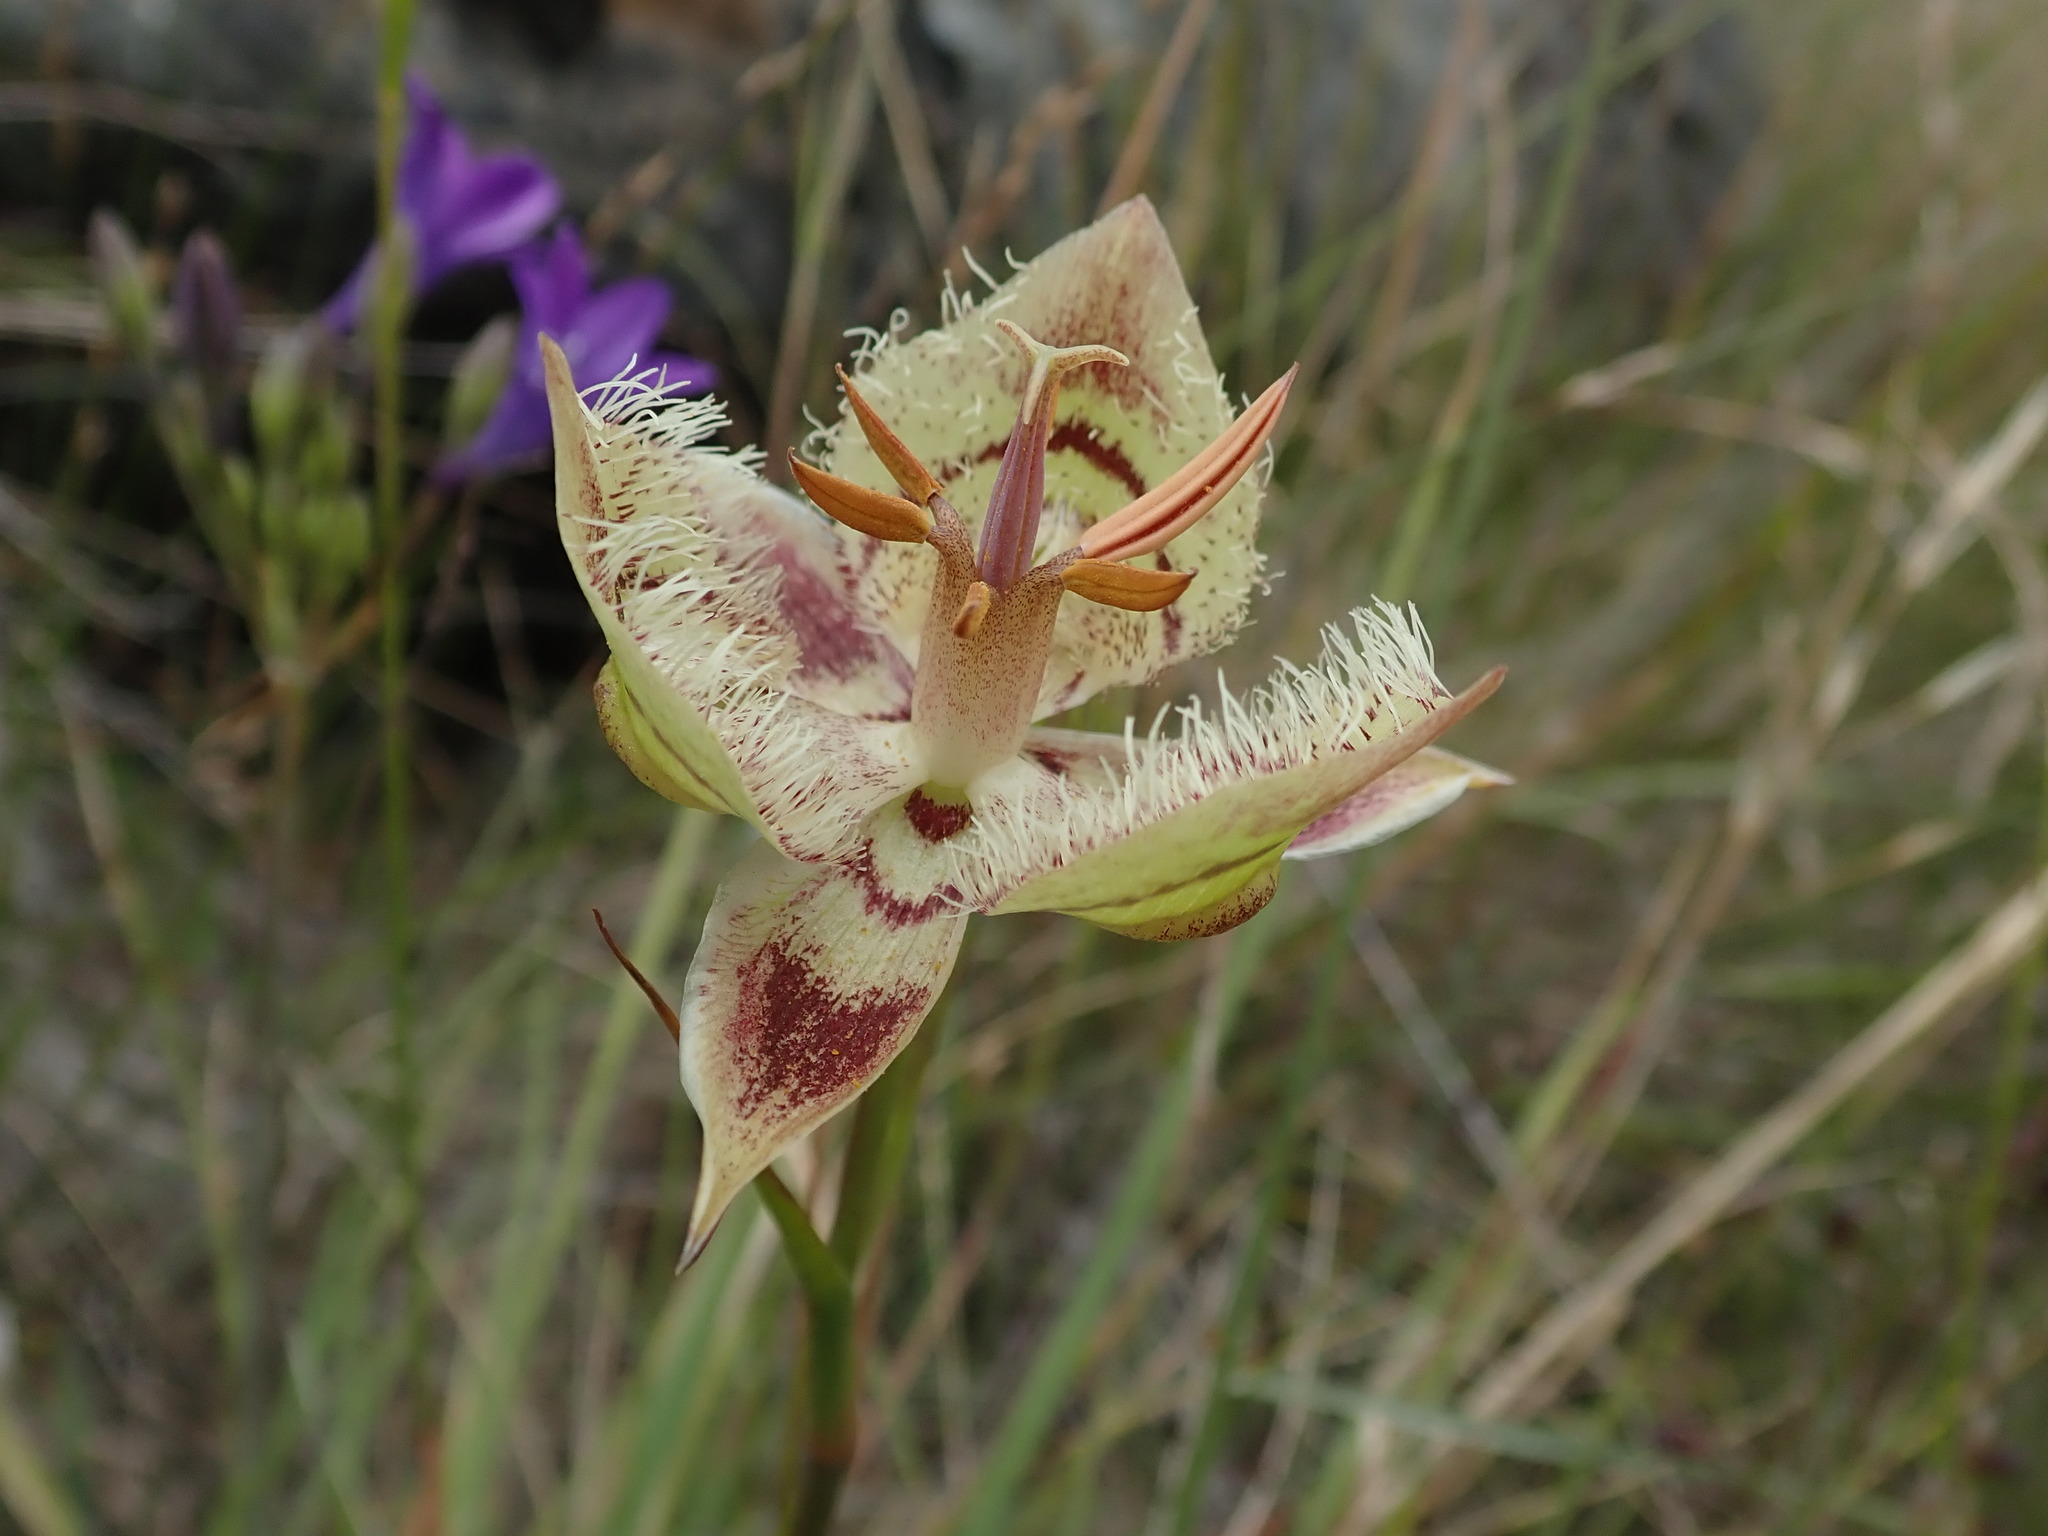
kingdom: Plantae
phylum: Tracheophyta
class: Liliopsida
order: Liliales
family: Liliaceae
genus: Calochortus
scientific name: Calochortus tiburonensis
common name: Tiburon mariposa-lily
